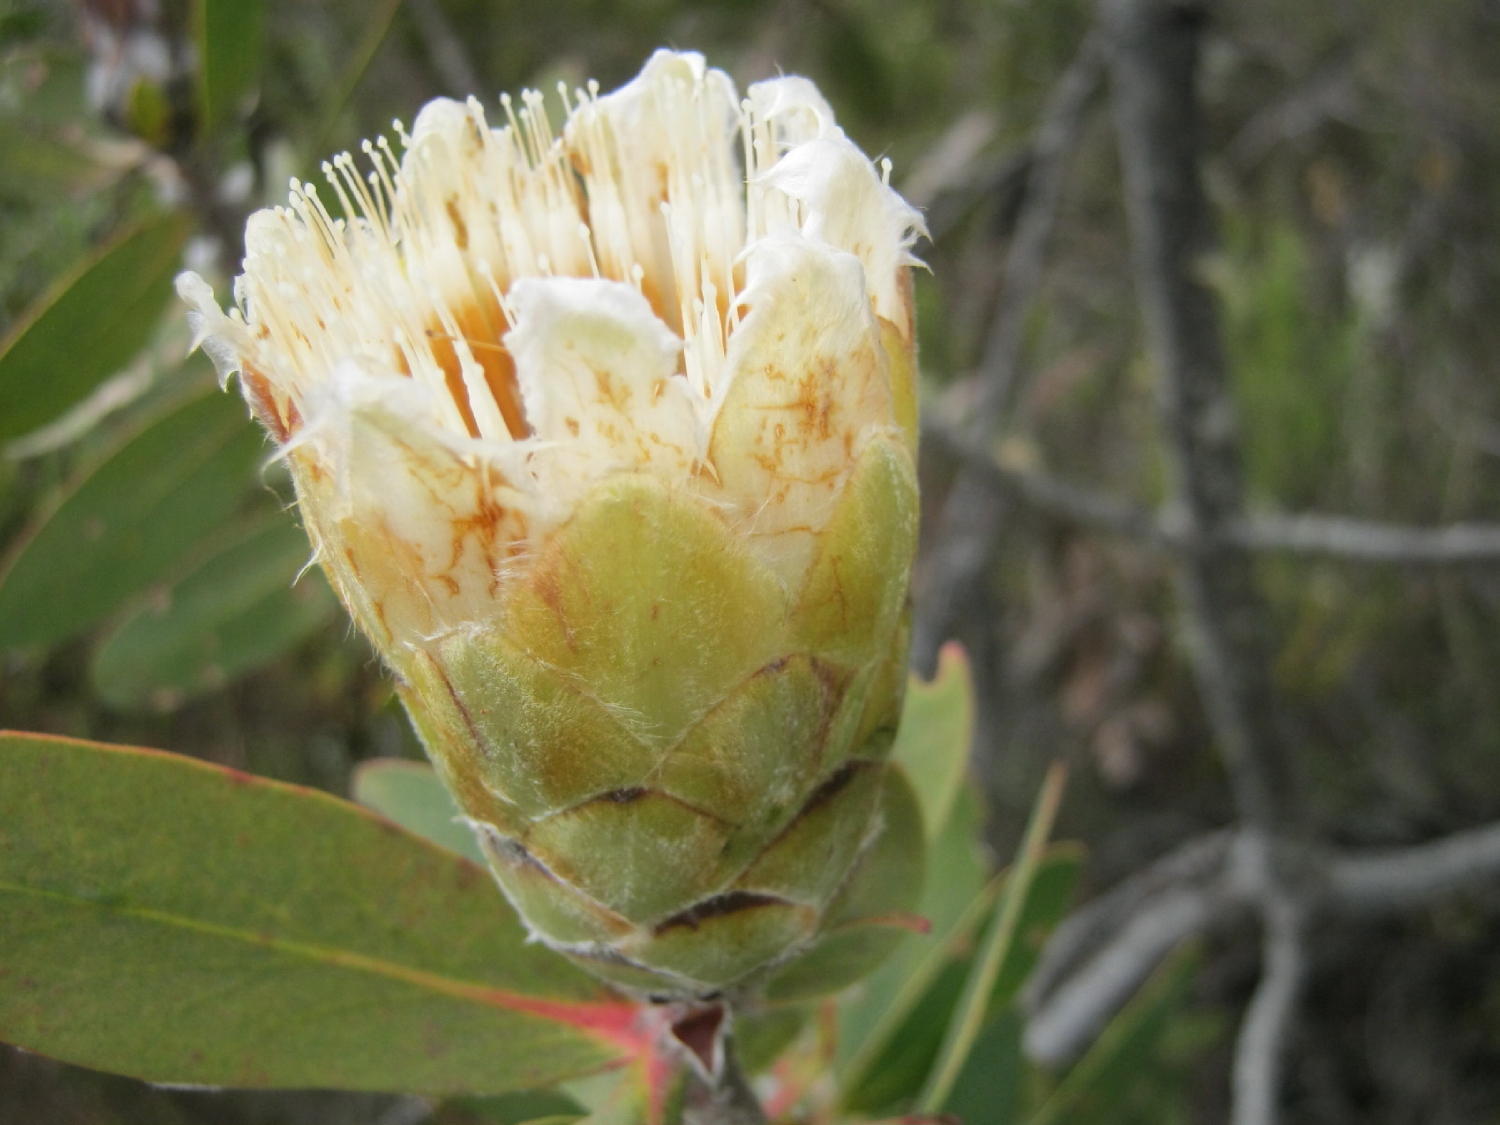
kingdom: Plantae
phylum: Tracheophyta
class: Magnoliopsida
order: Proteales
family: Proteaceae
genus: Protea
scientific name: Protea mundii
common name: Forest sugarbush
